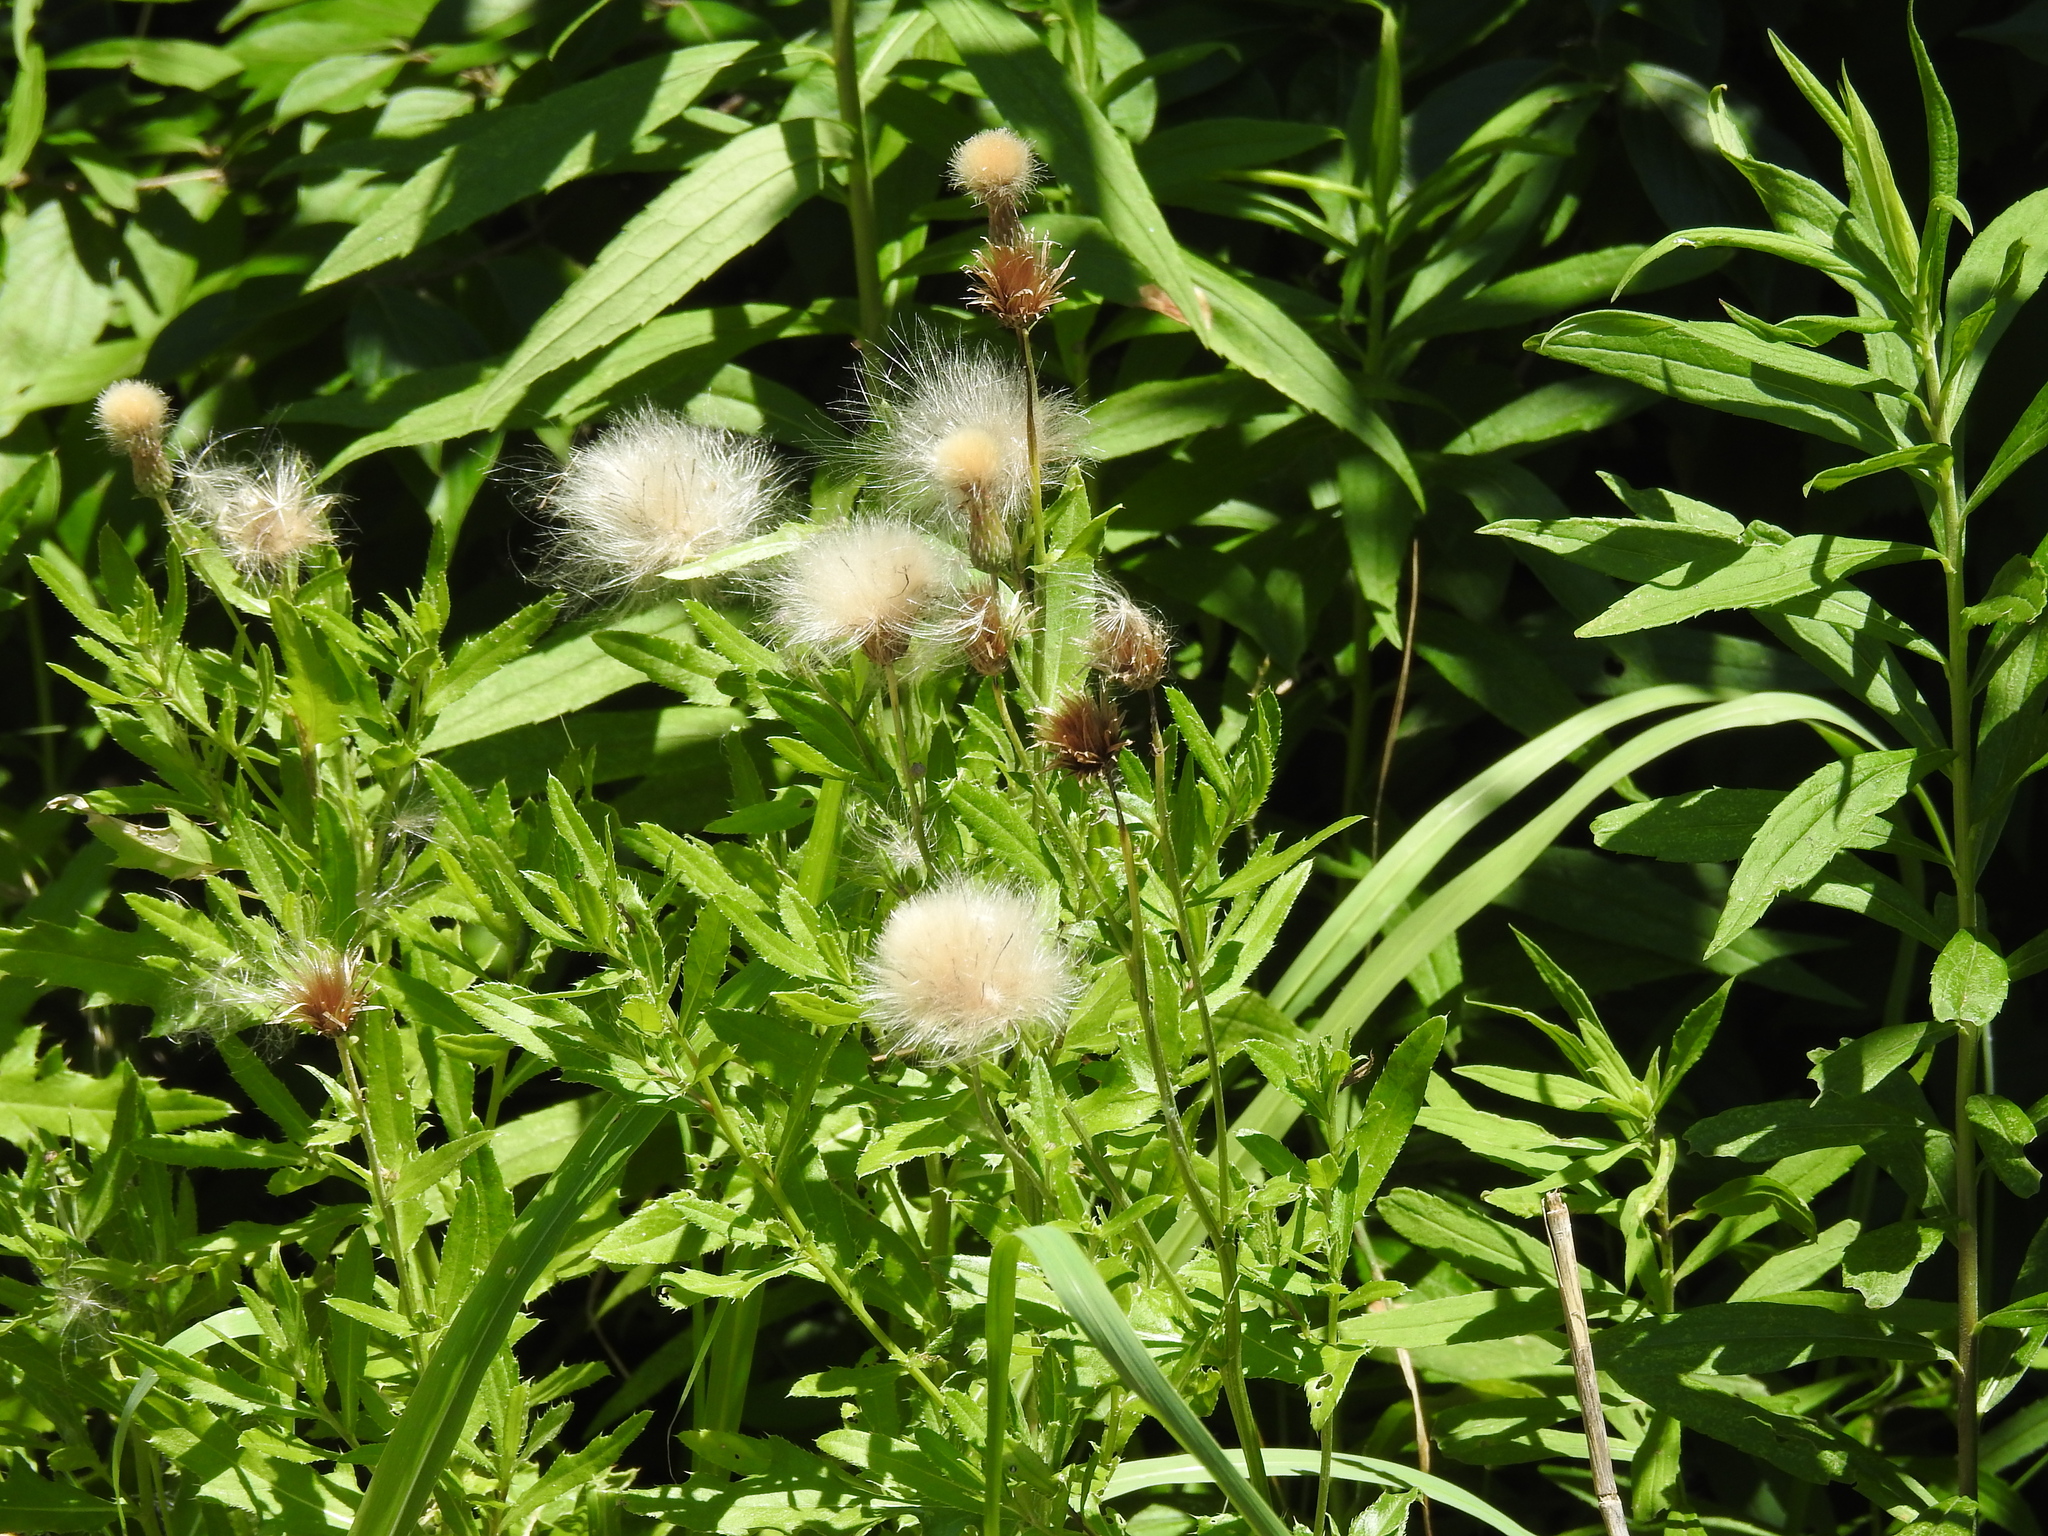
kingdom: Plantae
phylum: Tracheophyta
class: Magnoliopsida
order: Asterales
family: Asteraceae
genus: Cirsium
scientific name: Cirsium arvense
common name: Creeping thistle
